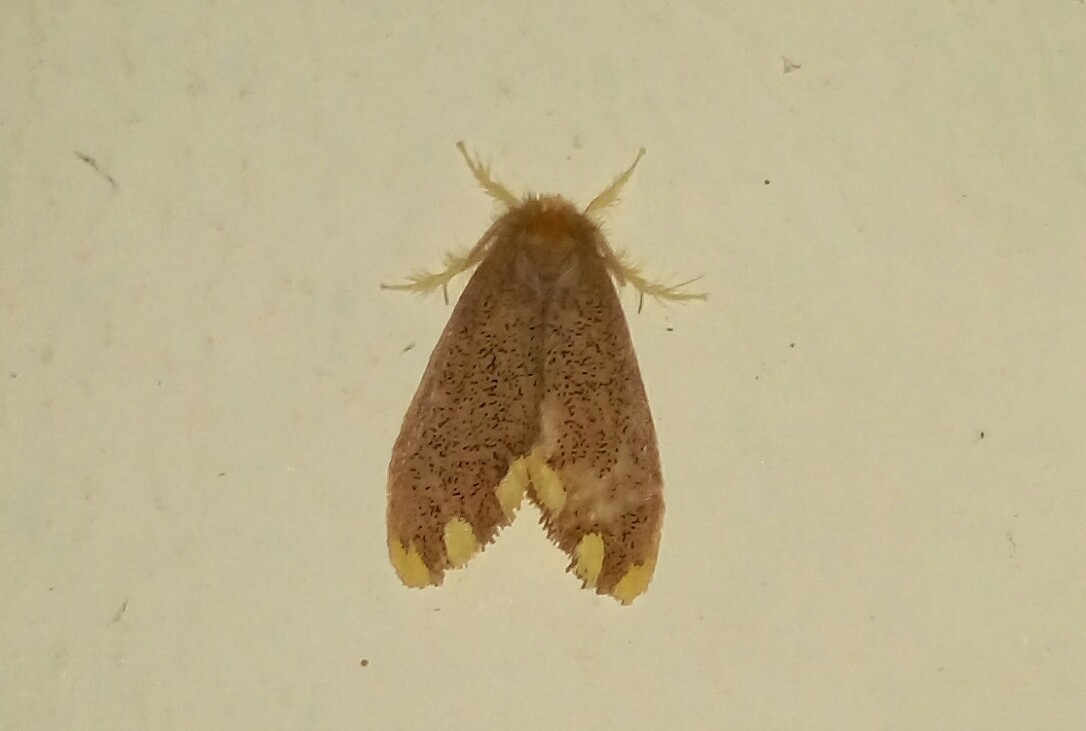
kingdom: Animalia
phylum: Arthropoda
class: Insecta
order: Lepidoptera
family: Erebidae
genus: Orvasca
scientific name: Orvasca subnotata
